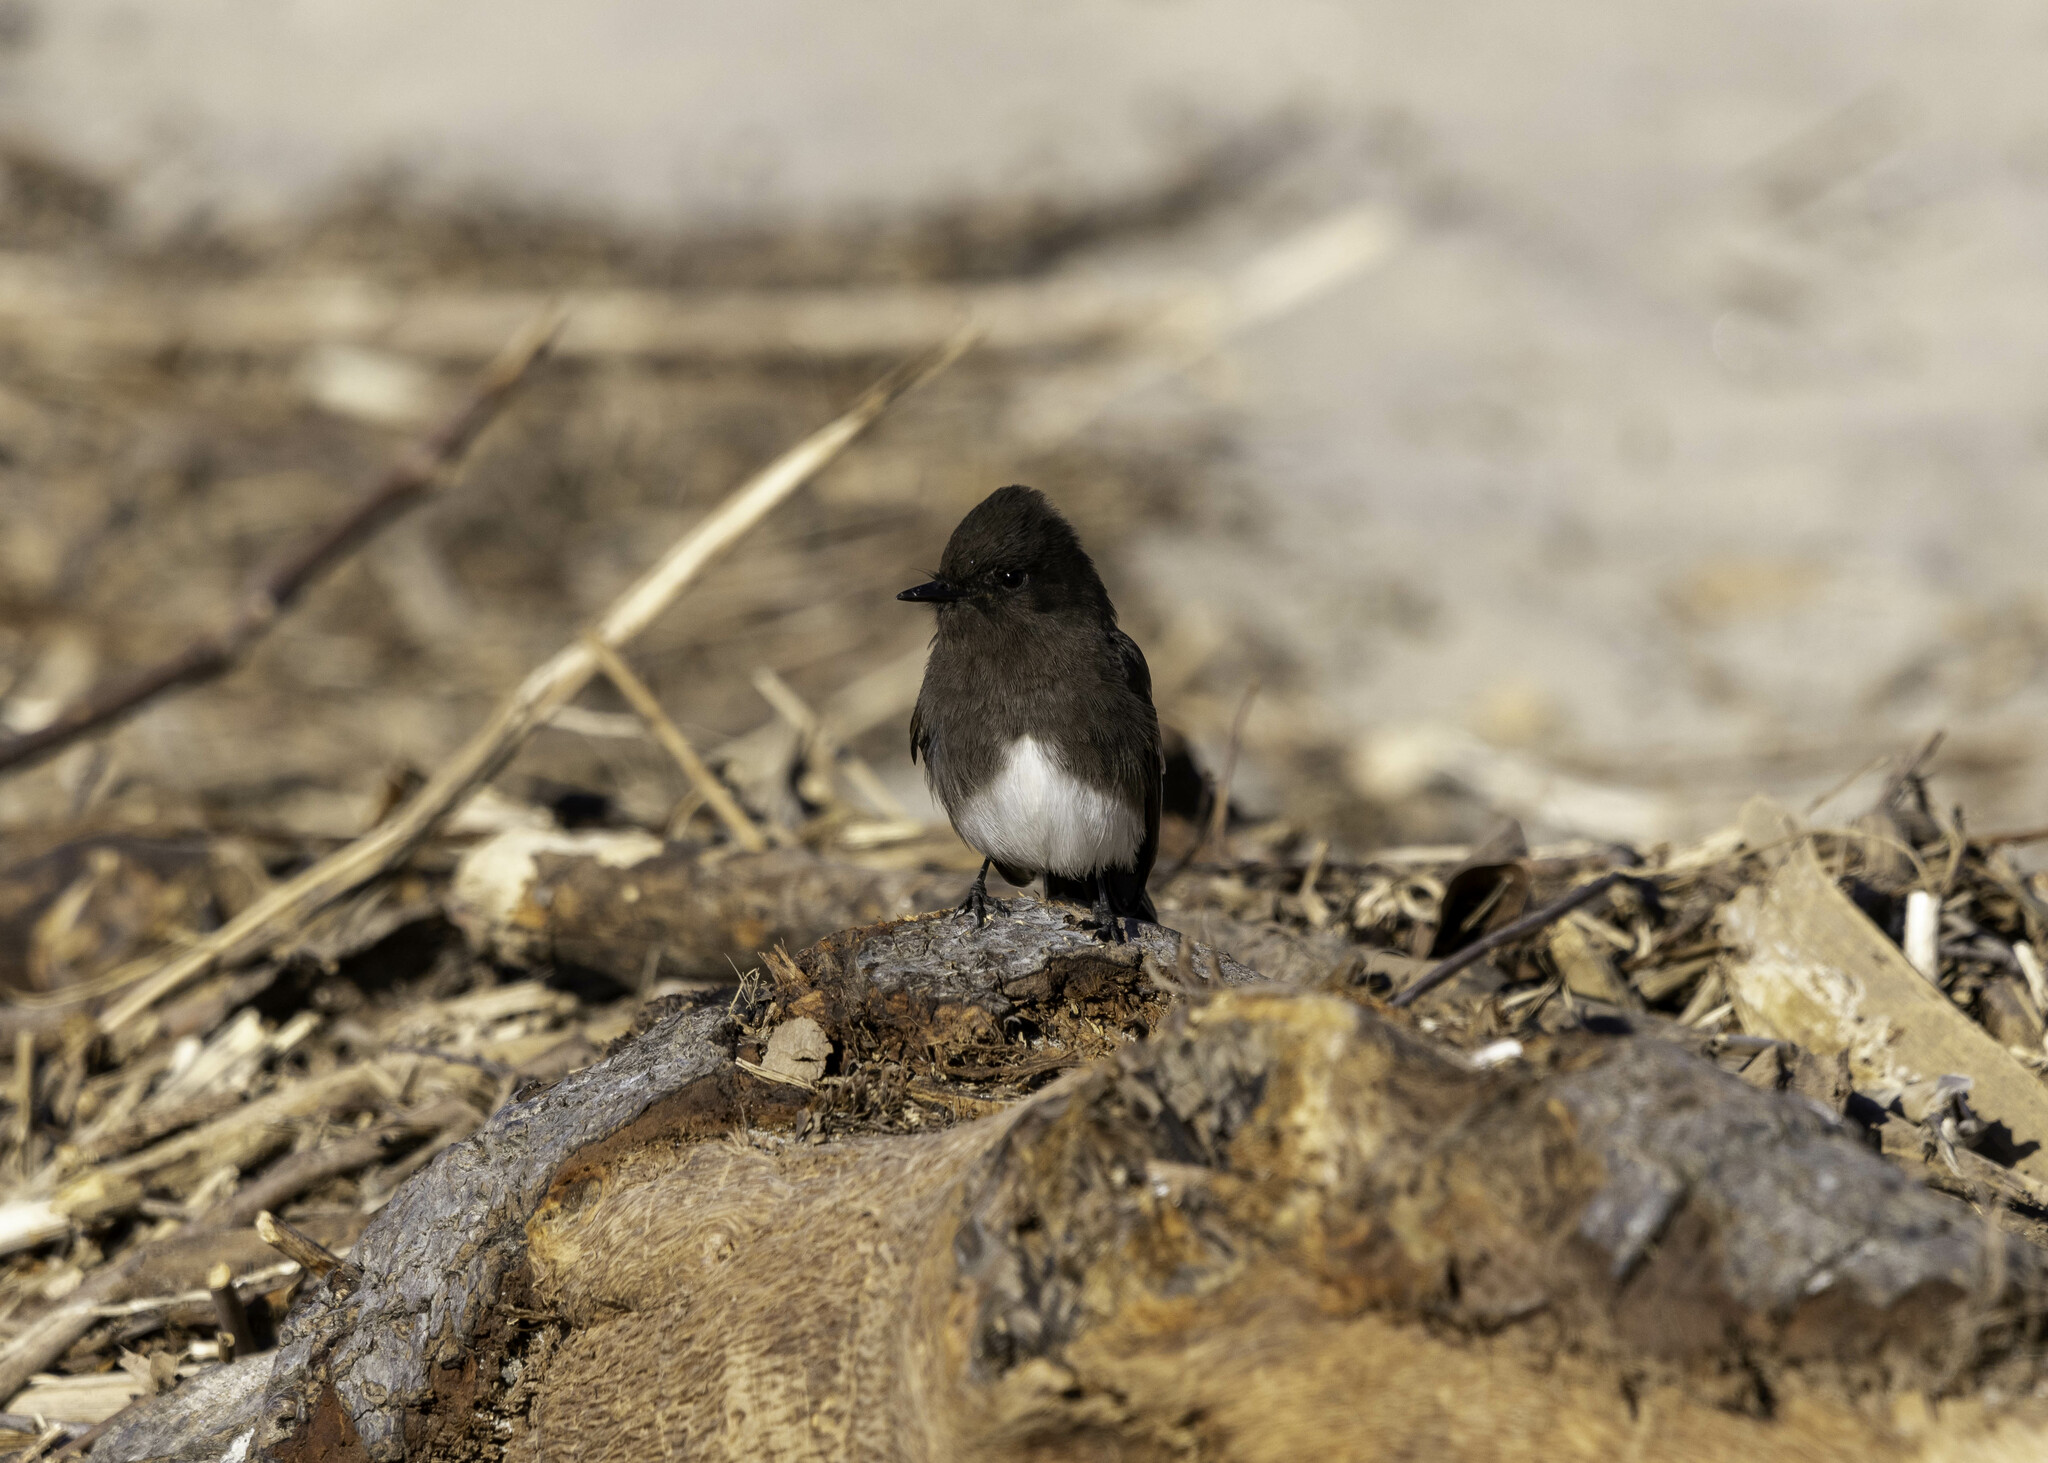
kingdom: Animalia
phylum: Chordata
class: Aves
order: Passeriformes
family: Tyrannidae
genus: Sayornis
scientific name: Sayornis nigricans
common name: Black phoebe
